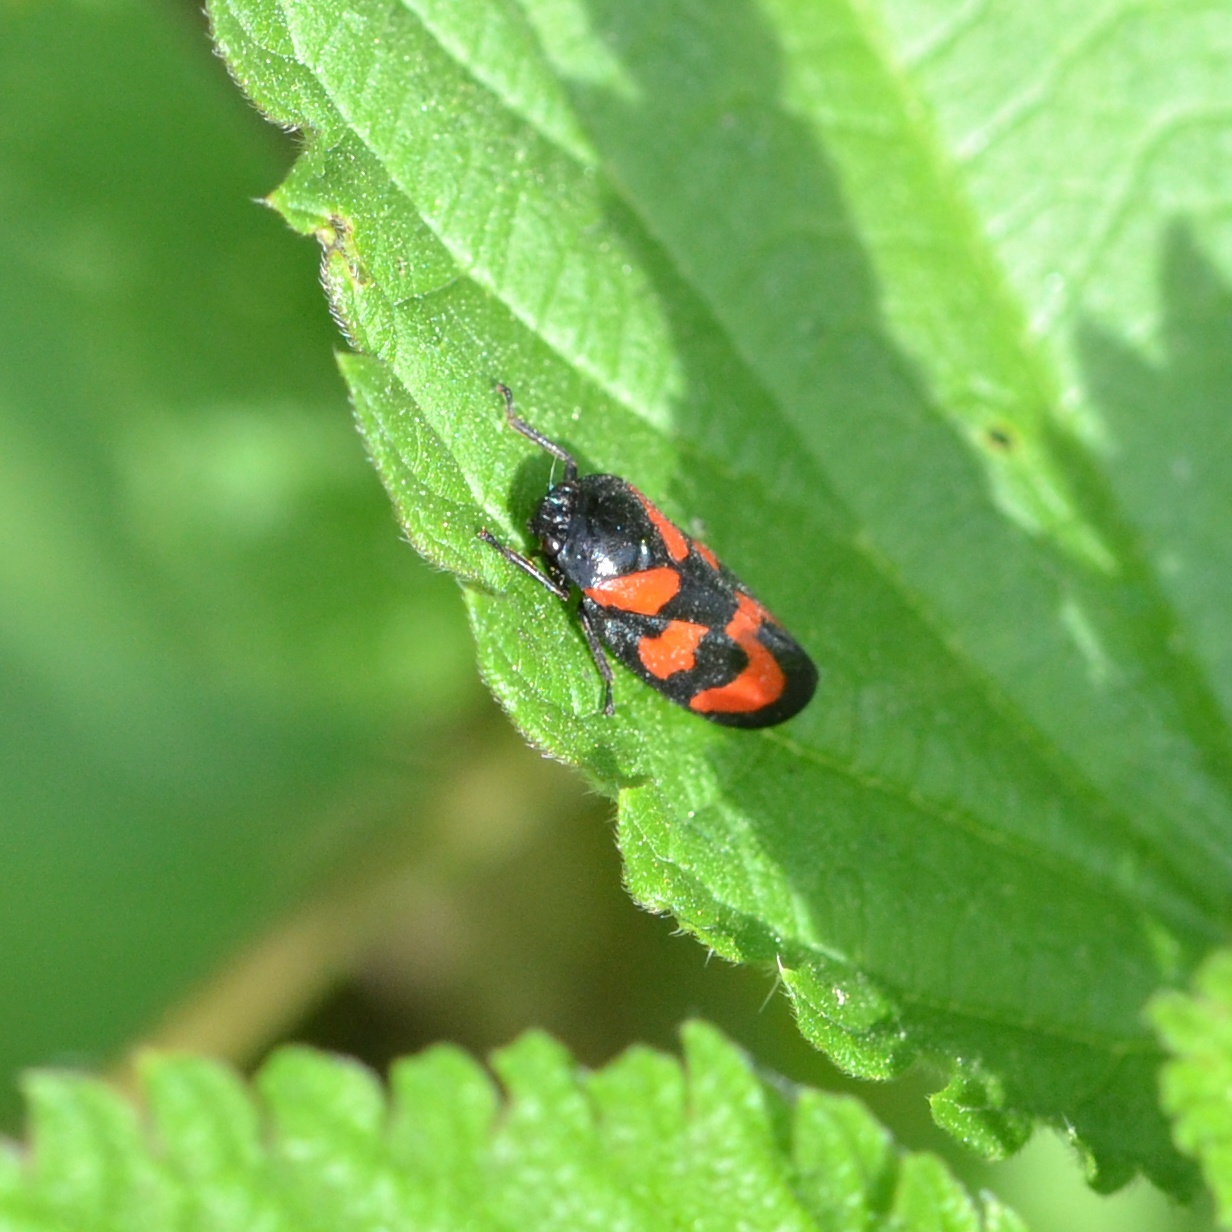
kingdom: Animalia
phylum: Arthropoda
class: Insecta
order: Hemiptera
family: Cercopidae
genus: Cercopis
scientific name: Cercopis vulnerata
